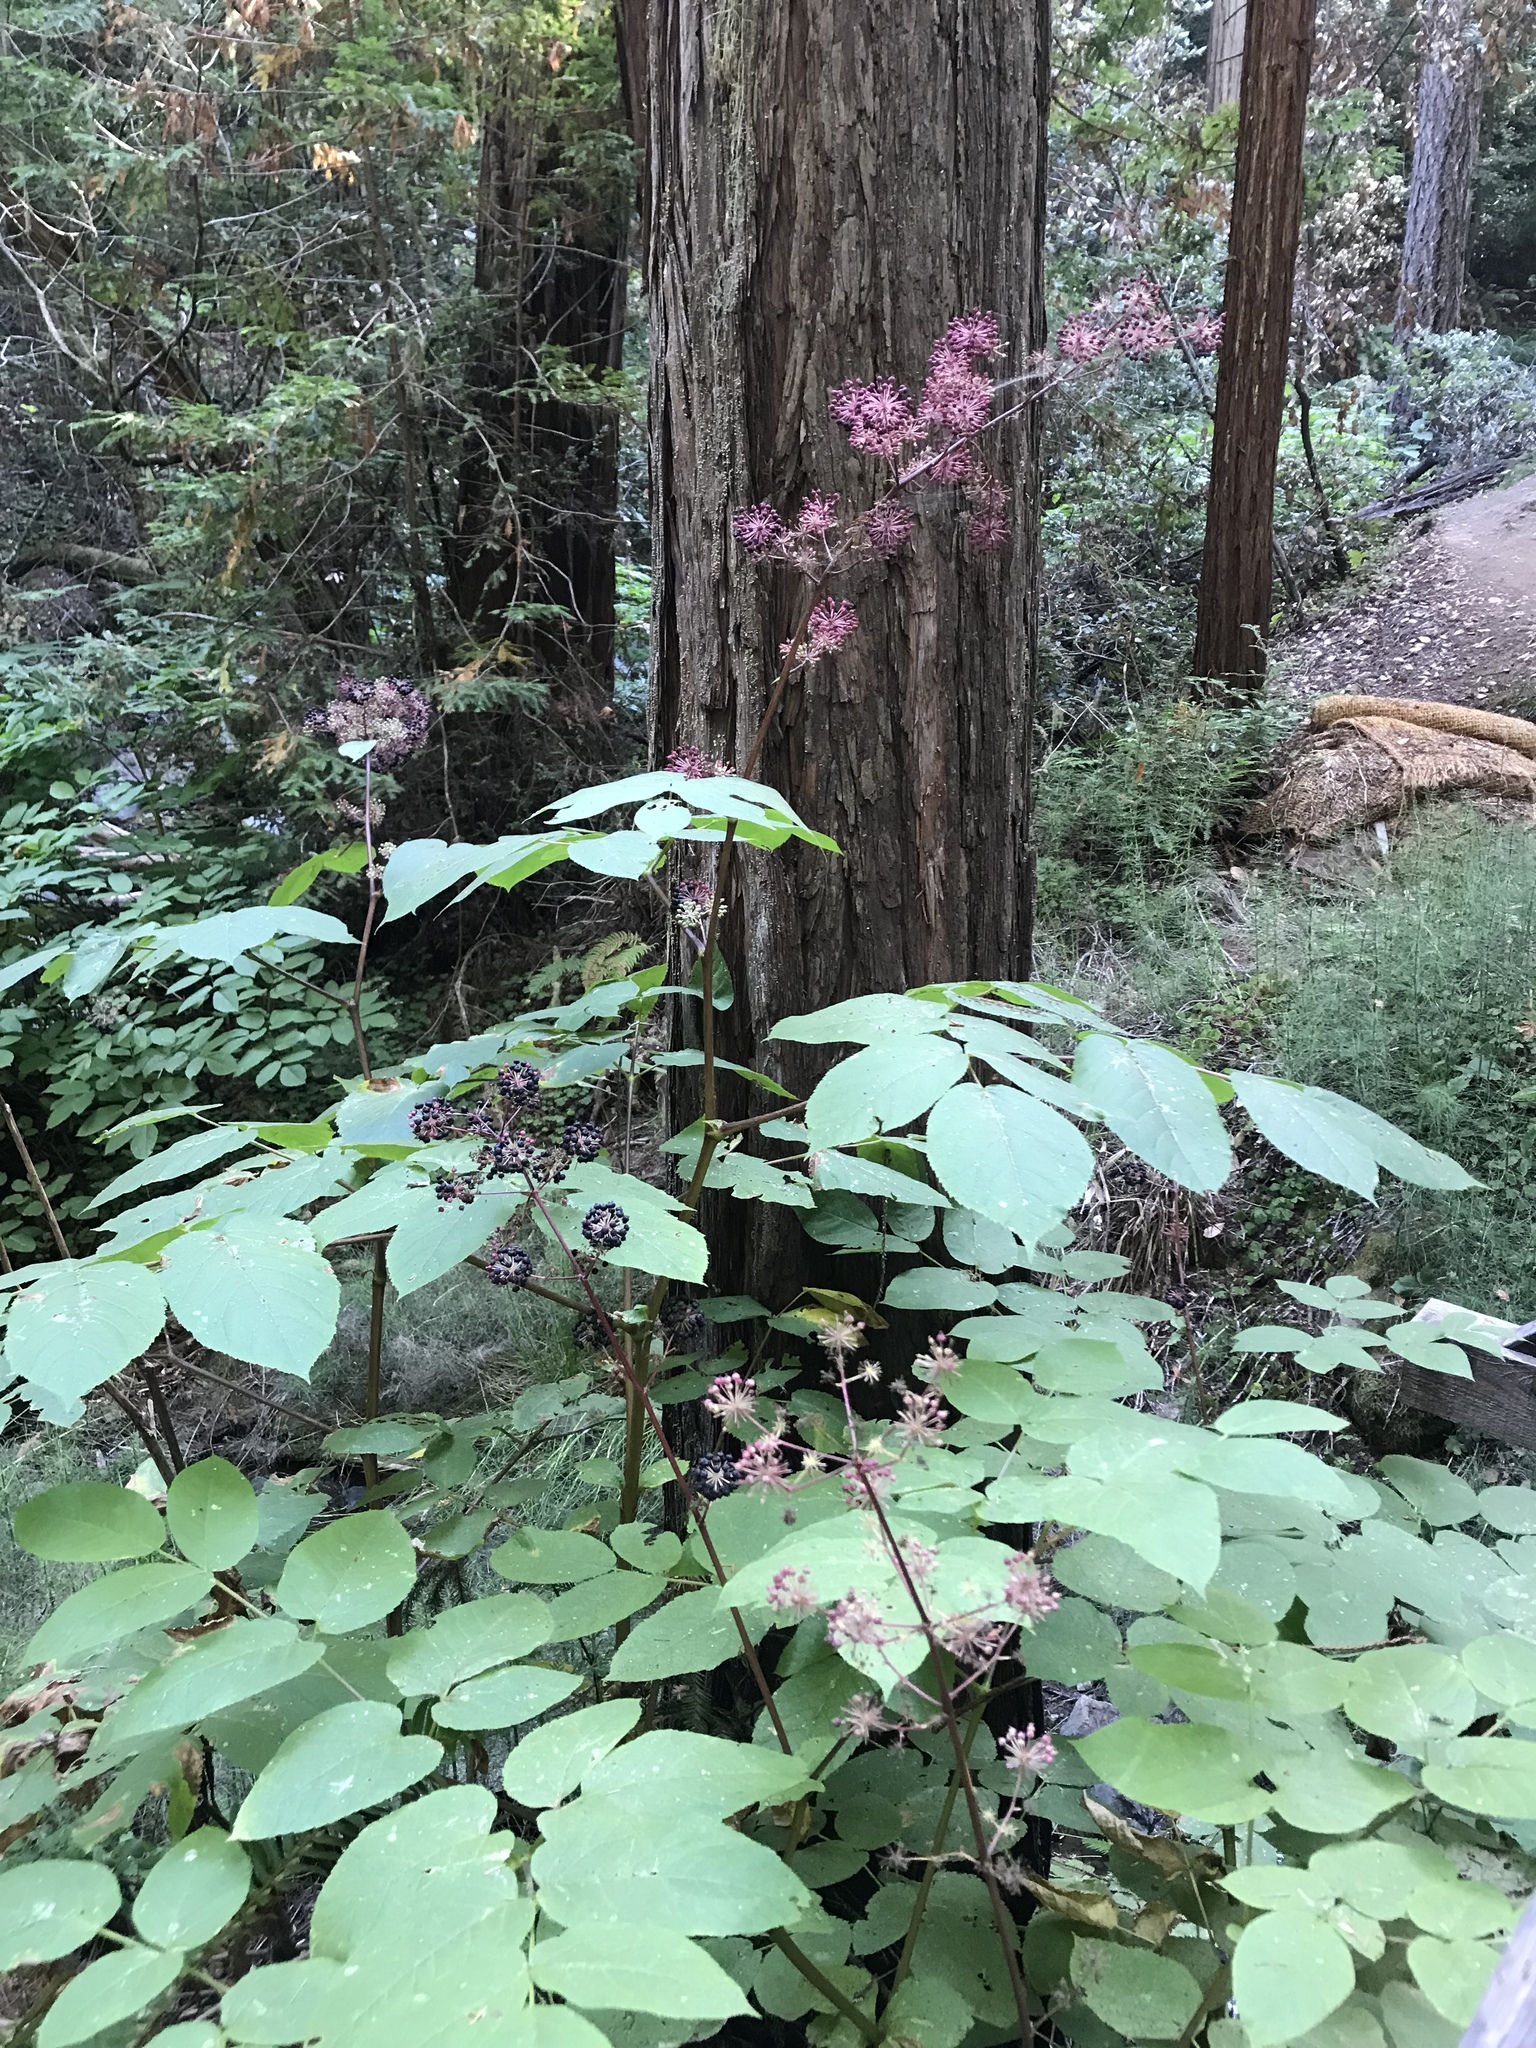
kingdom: Plantae
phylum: Tracheophyta
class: Magnoliopsida
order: Apiales
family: Araliaceae
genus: Aralia
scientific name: Aralia californica
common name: California-ginseng
